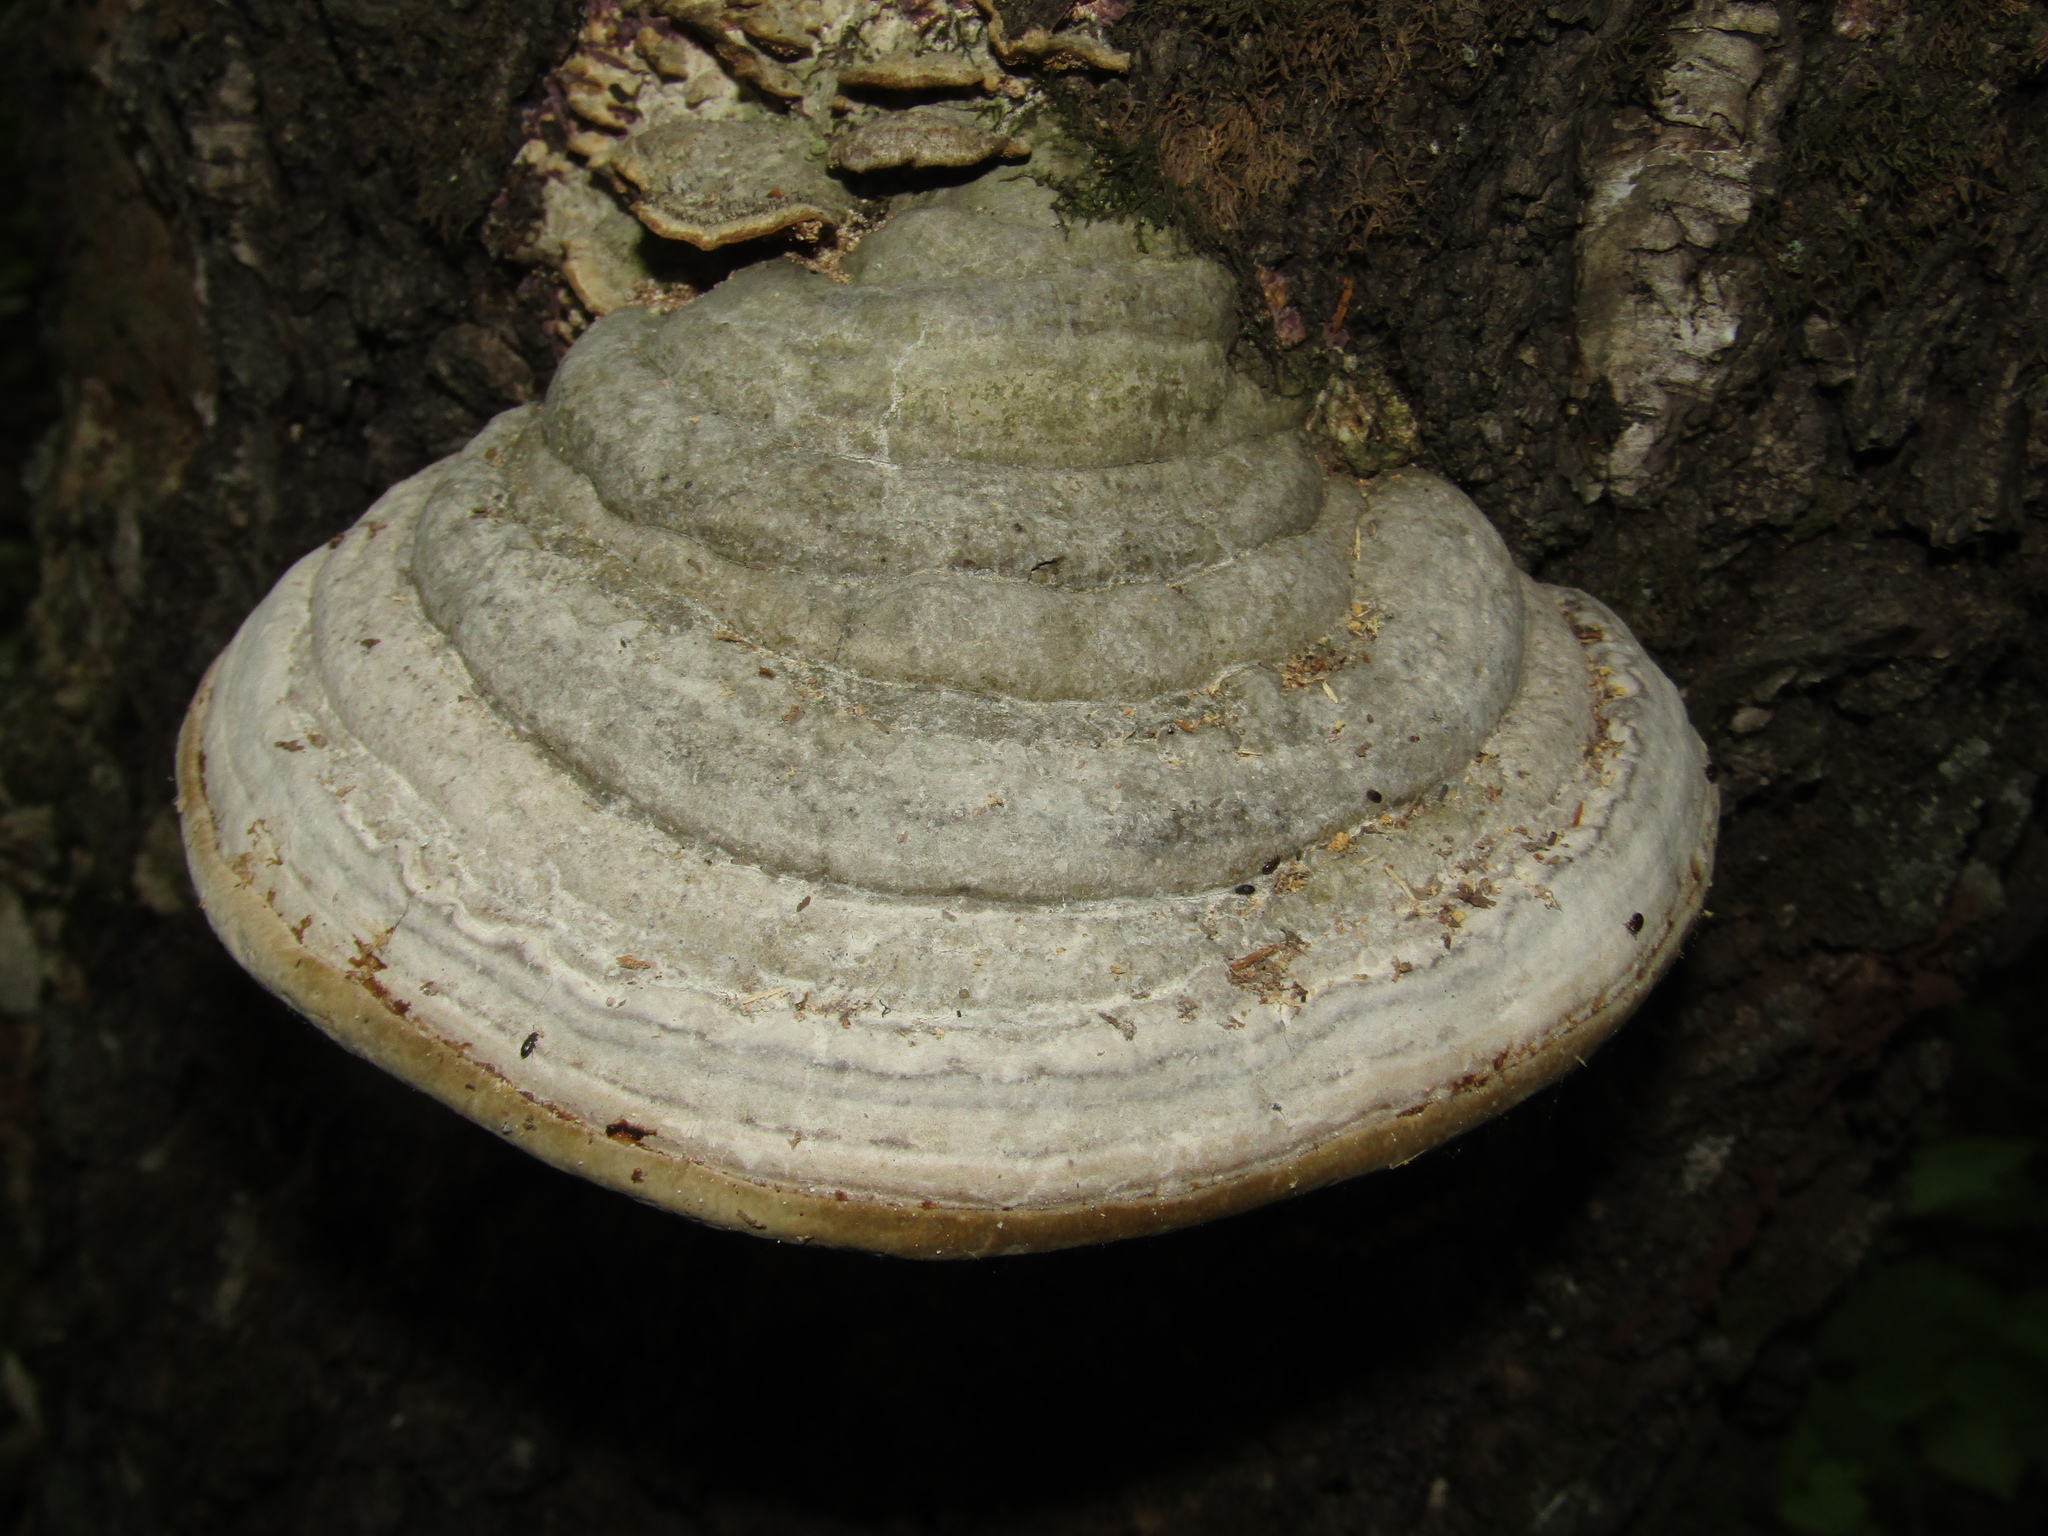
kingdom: Fungi
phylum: Basidiomycota
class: Agaricomycetes
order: Polyporales
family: Polyporaceae
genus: Fomes
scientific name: Fomes fomentarius
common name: Hoof fungus
